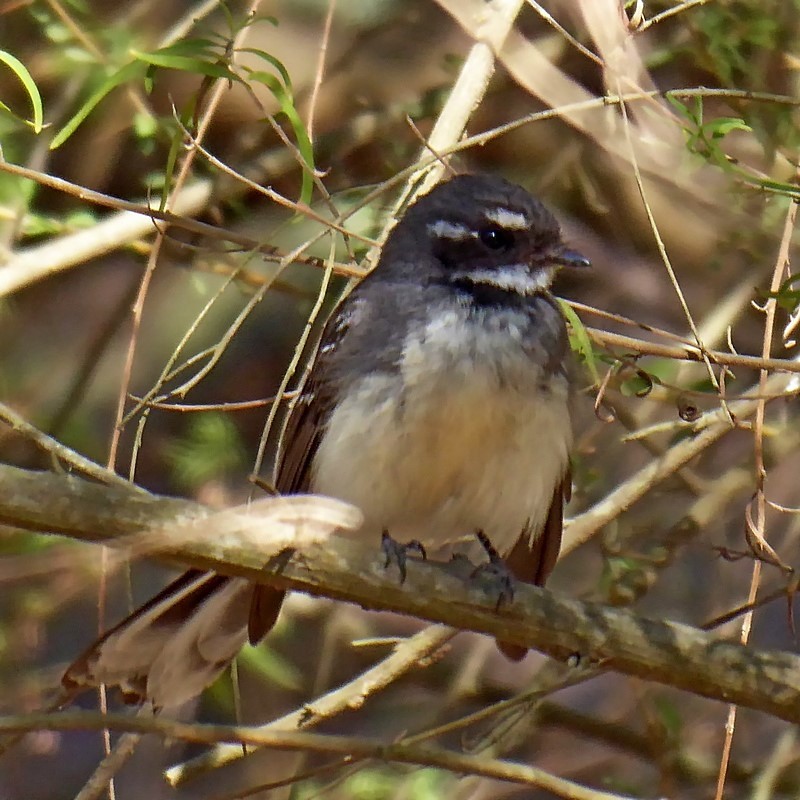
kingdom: Animalia
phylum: Chordata
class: Aves
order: Passeriformes
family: Rhipiduridae
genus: Rhipidura
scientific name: Rhipidura albiscapa
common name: Grey fantail
